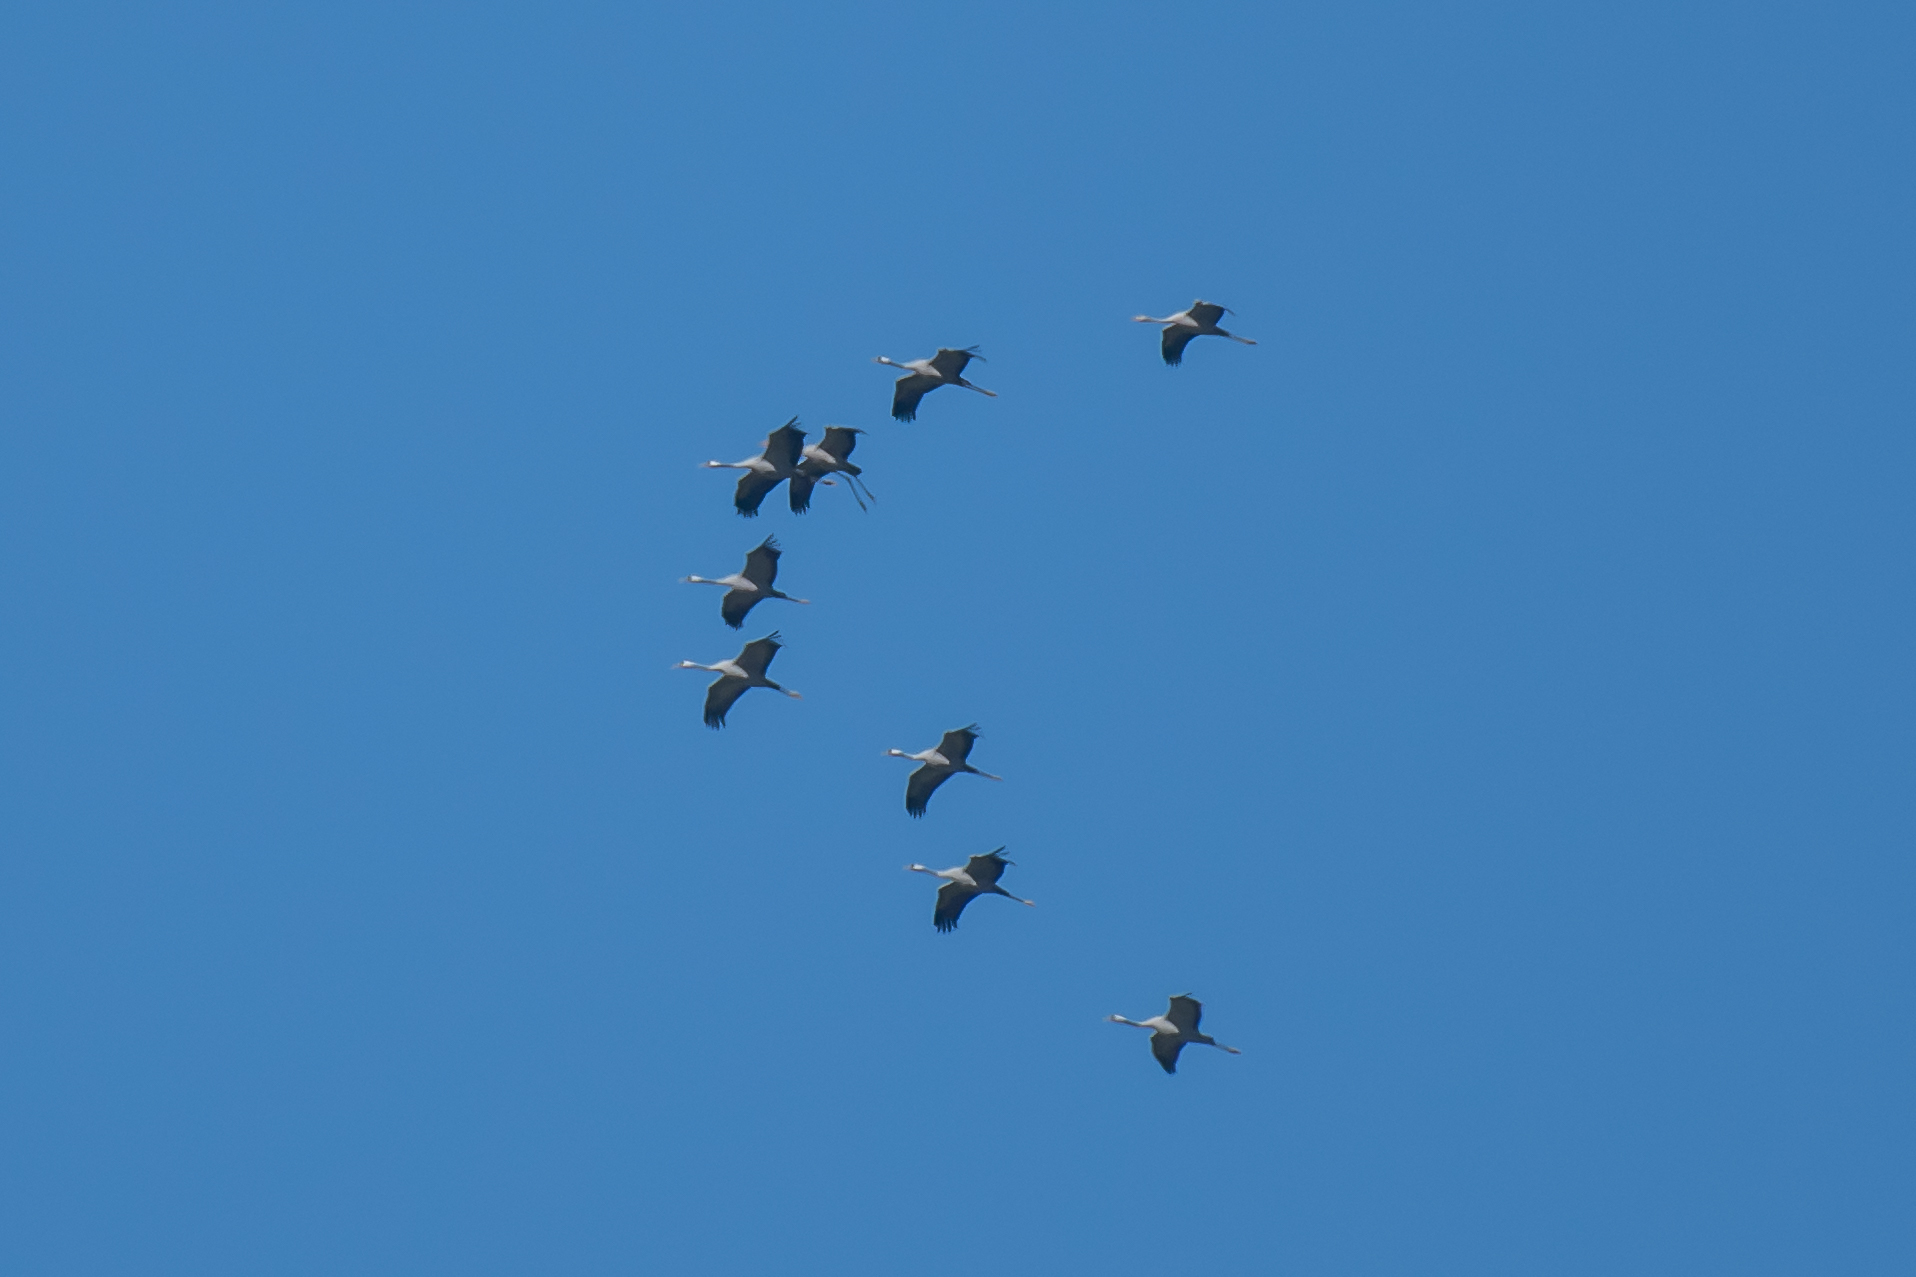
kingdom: Animalia
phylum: Chordata
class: Aves
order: Gruiformes
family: Gruidae
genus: Grus
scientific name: Grus grus
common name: Common crane
